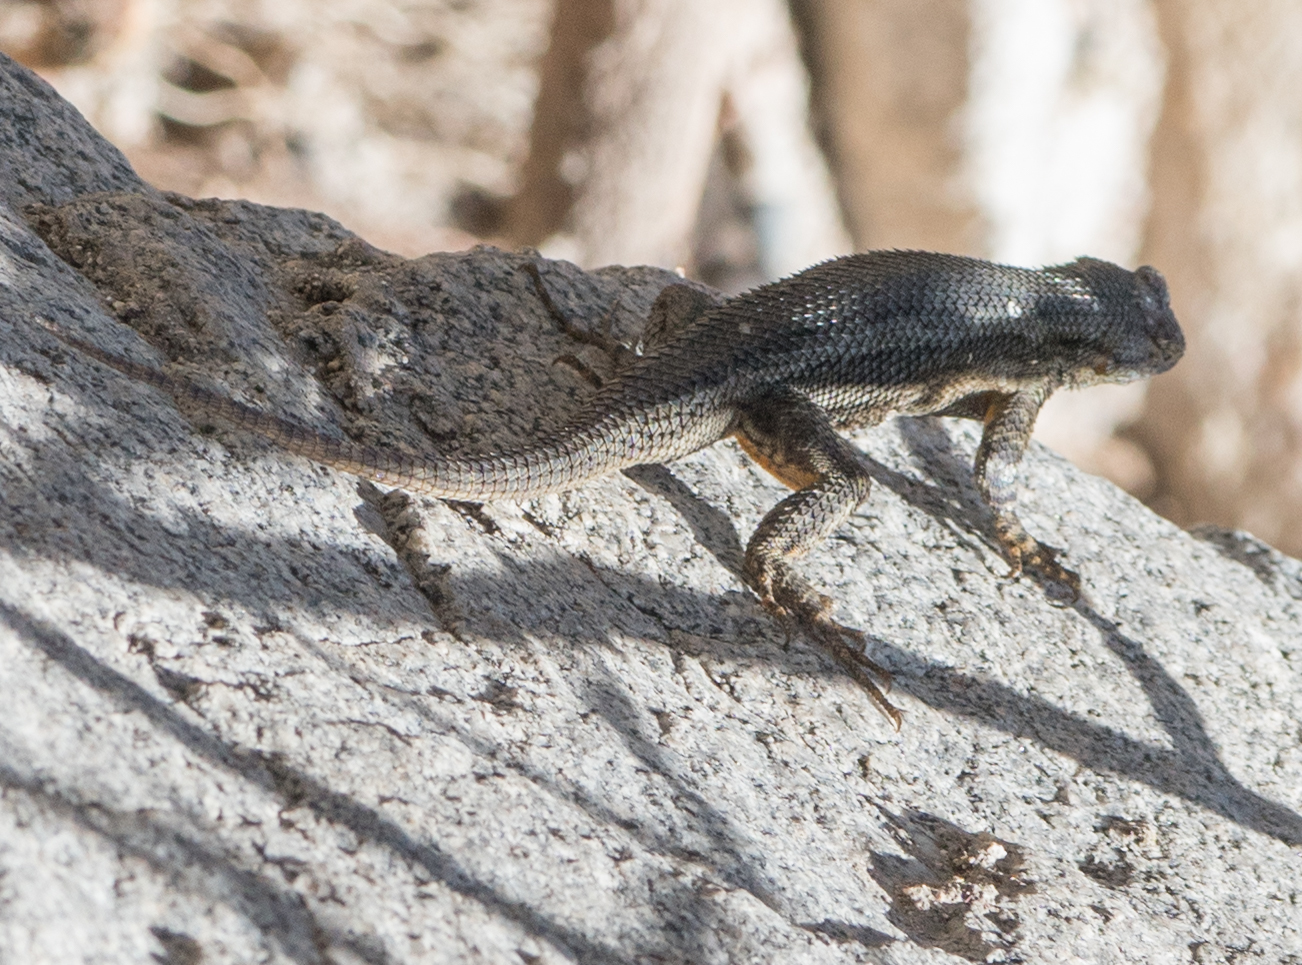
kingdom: Animalia
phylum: Chordata
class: Squamata
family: Phrynosomatidae
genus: Sceloporus
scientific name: Sceloporus occidentalis
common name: Western fence lizard
